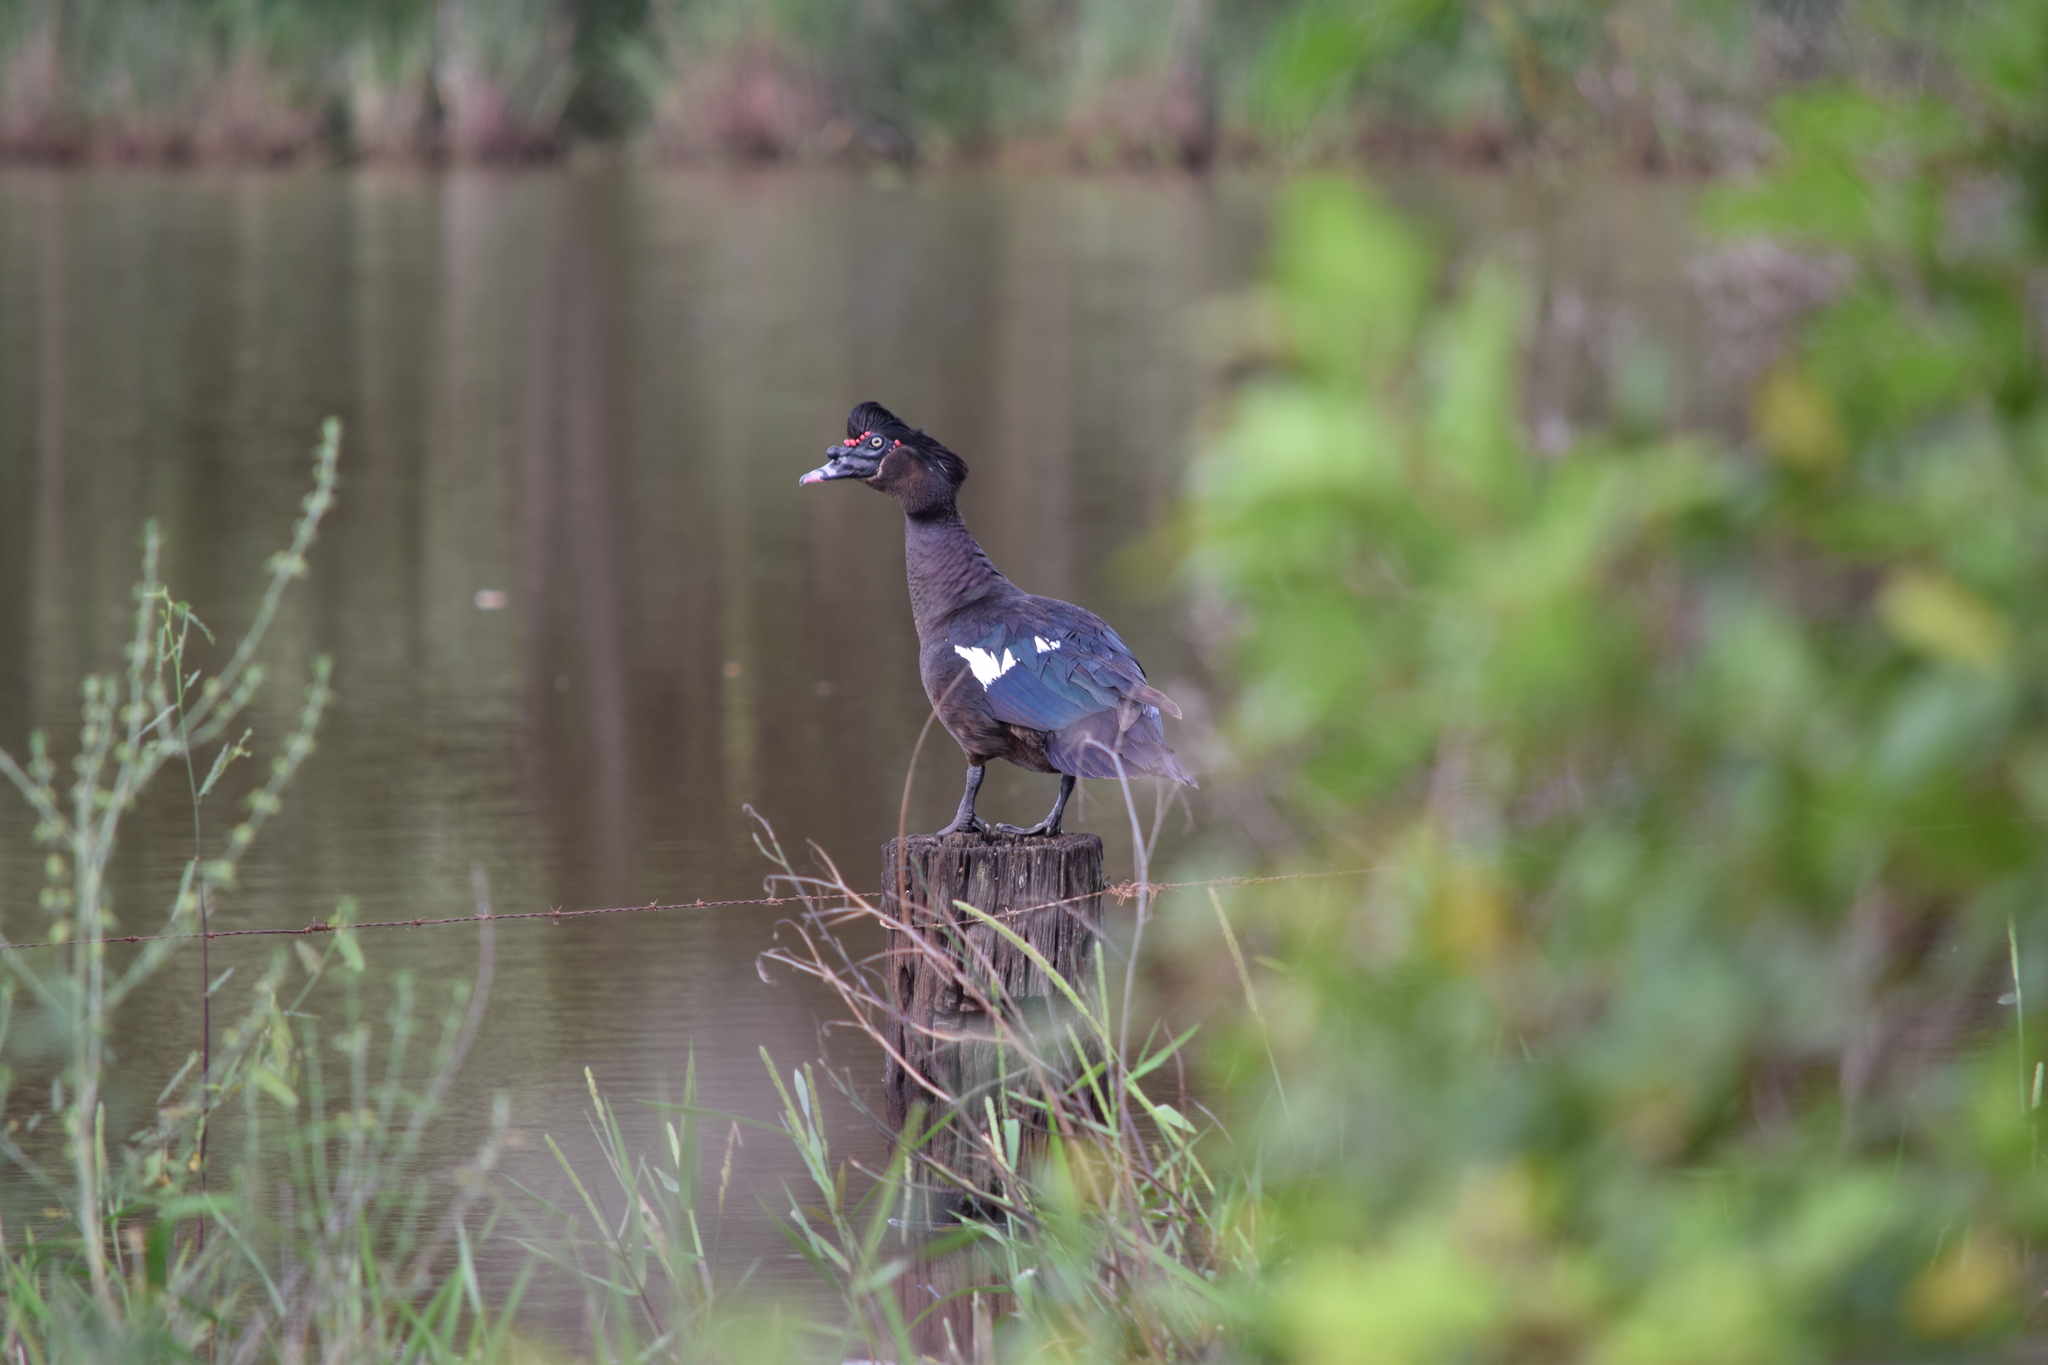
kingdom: Animalia
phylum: Chordata
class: Aves
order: Anseriformes
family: Anatidae
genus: Cairina
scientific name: Cairina moschata
